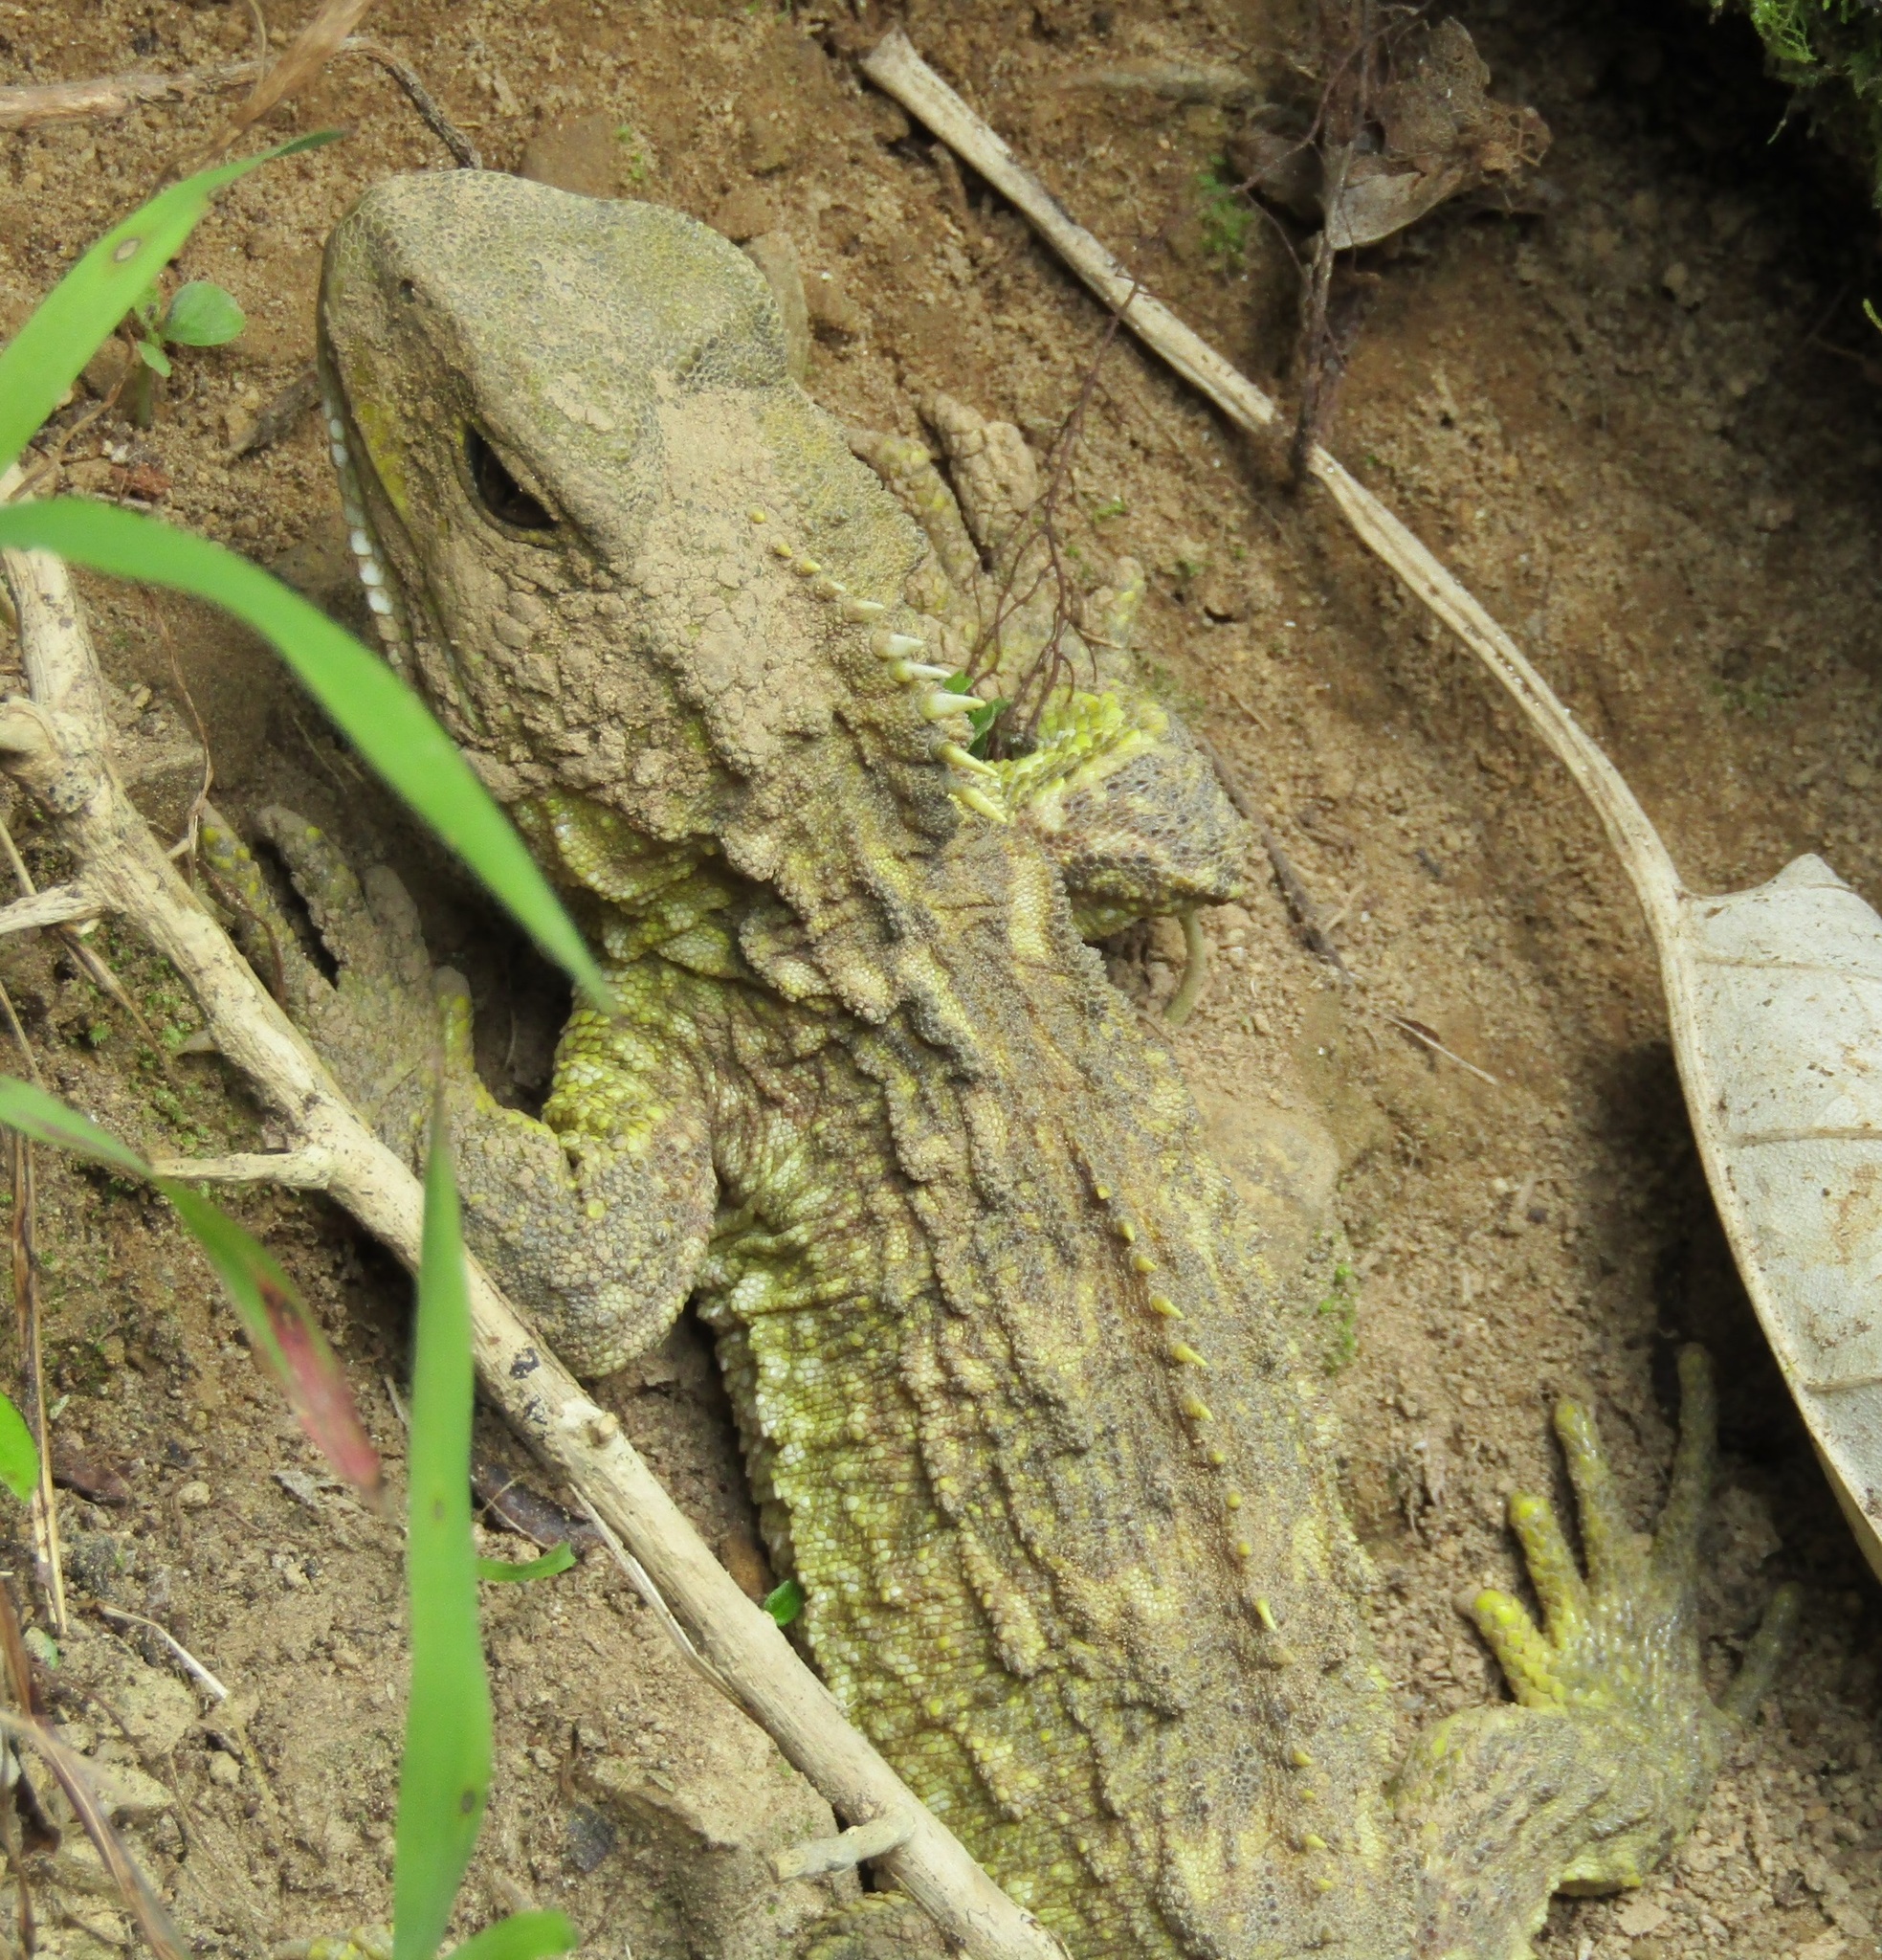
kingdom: Animalia
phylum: Chordata
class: Sphenodontia
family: Sphenodontidae
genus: Sphenodon
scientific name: Sphenodon punctatus
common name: Tuatara
